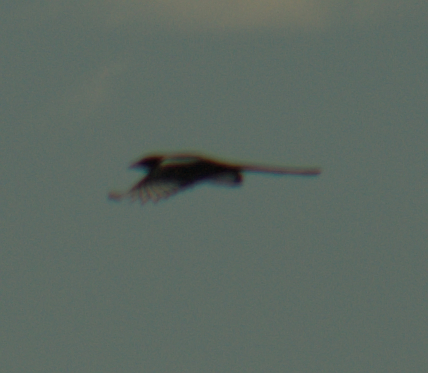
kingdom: Animalia
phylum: Chordata
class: Aves
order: Passeriformes
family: Corvidae
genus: Pica
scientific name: Pica hudsonia
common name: Black-billed magpie
